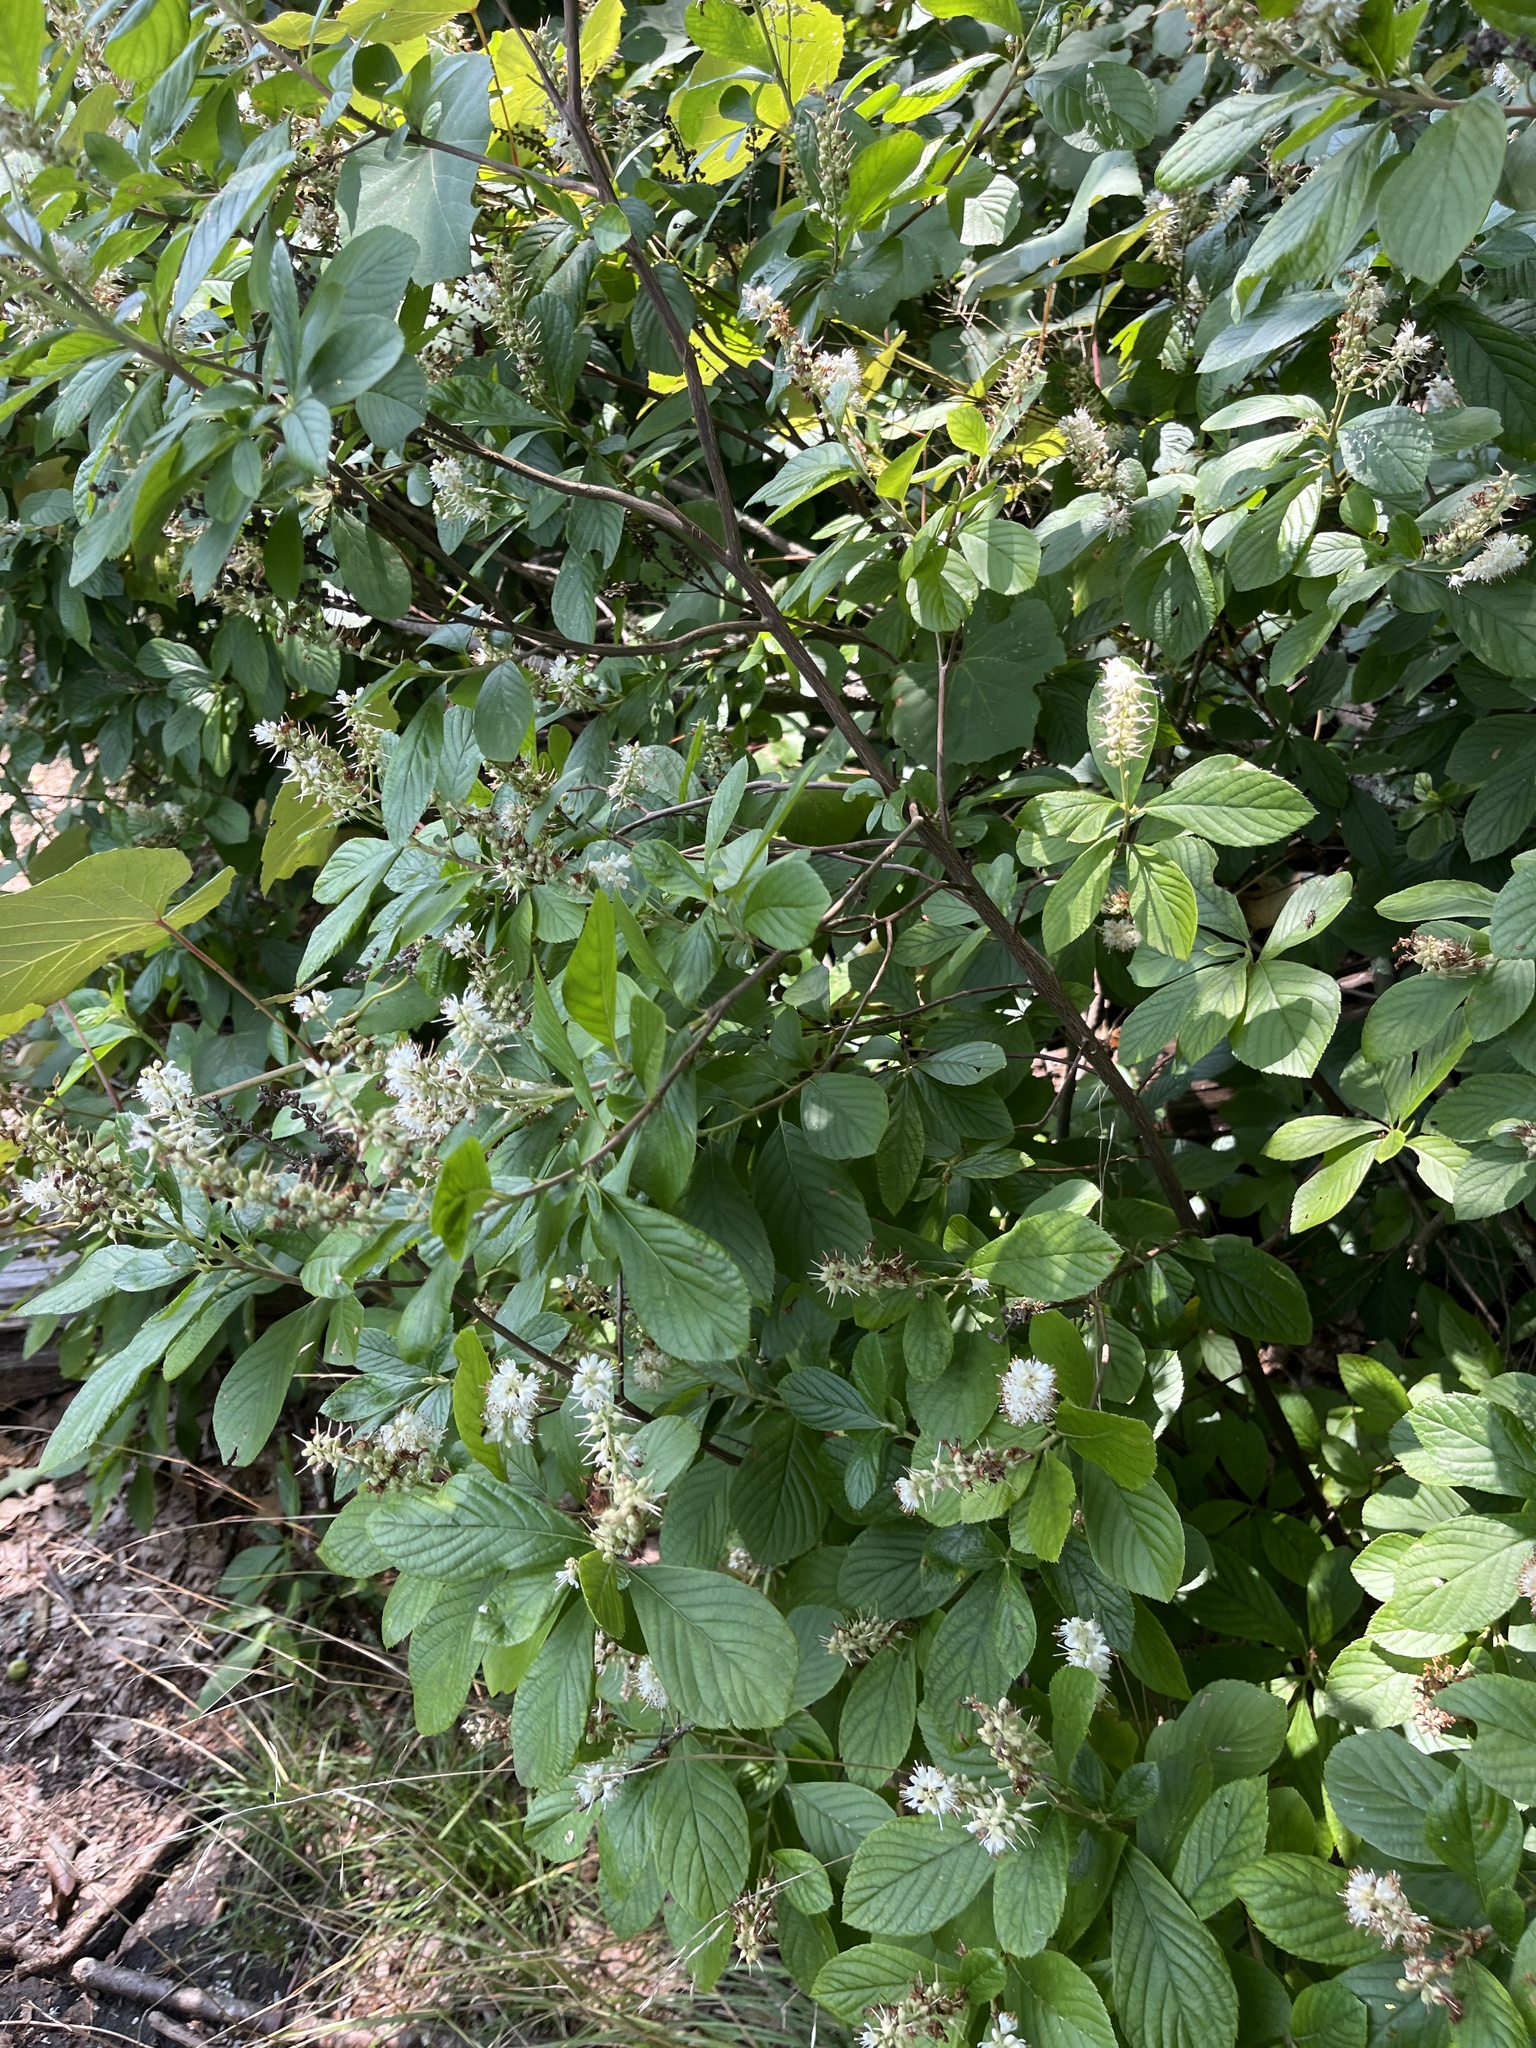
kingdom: Plantae
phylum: Tracheophyta
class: Magnoliopsida
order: Ericales
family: Clethraceae
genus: Clethra
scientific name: Clethra alnifolia
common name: Sweet pepperbush
